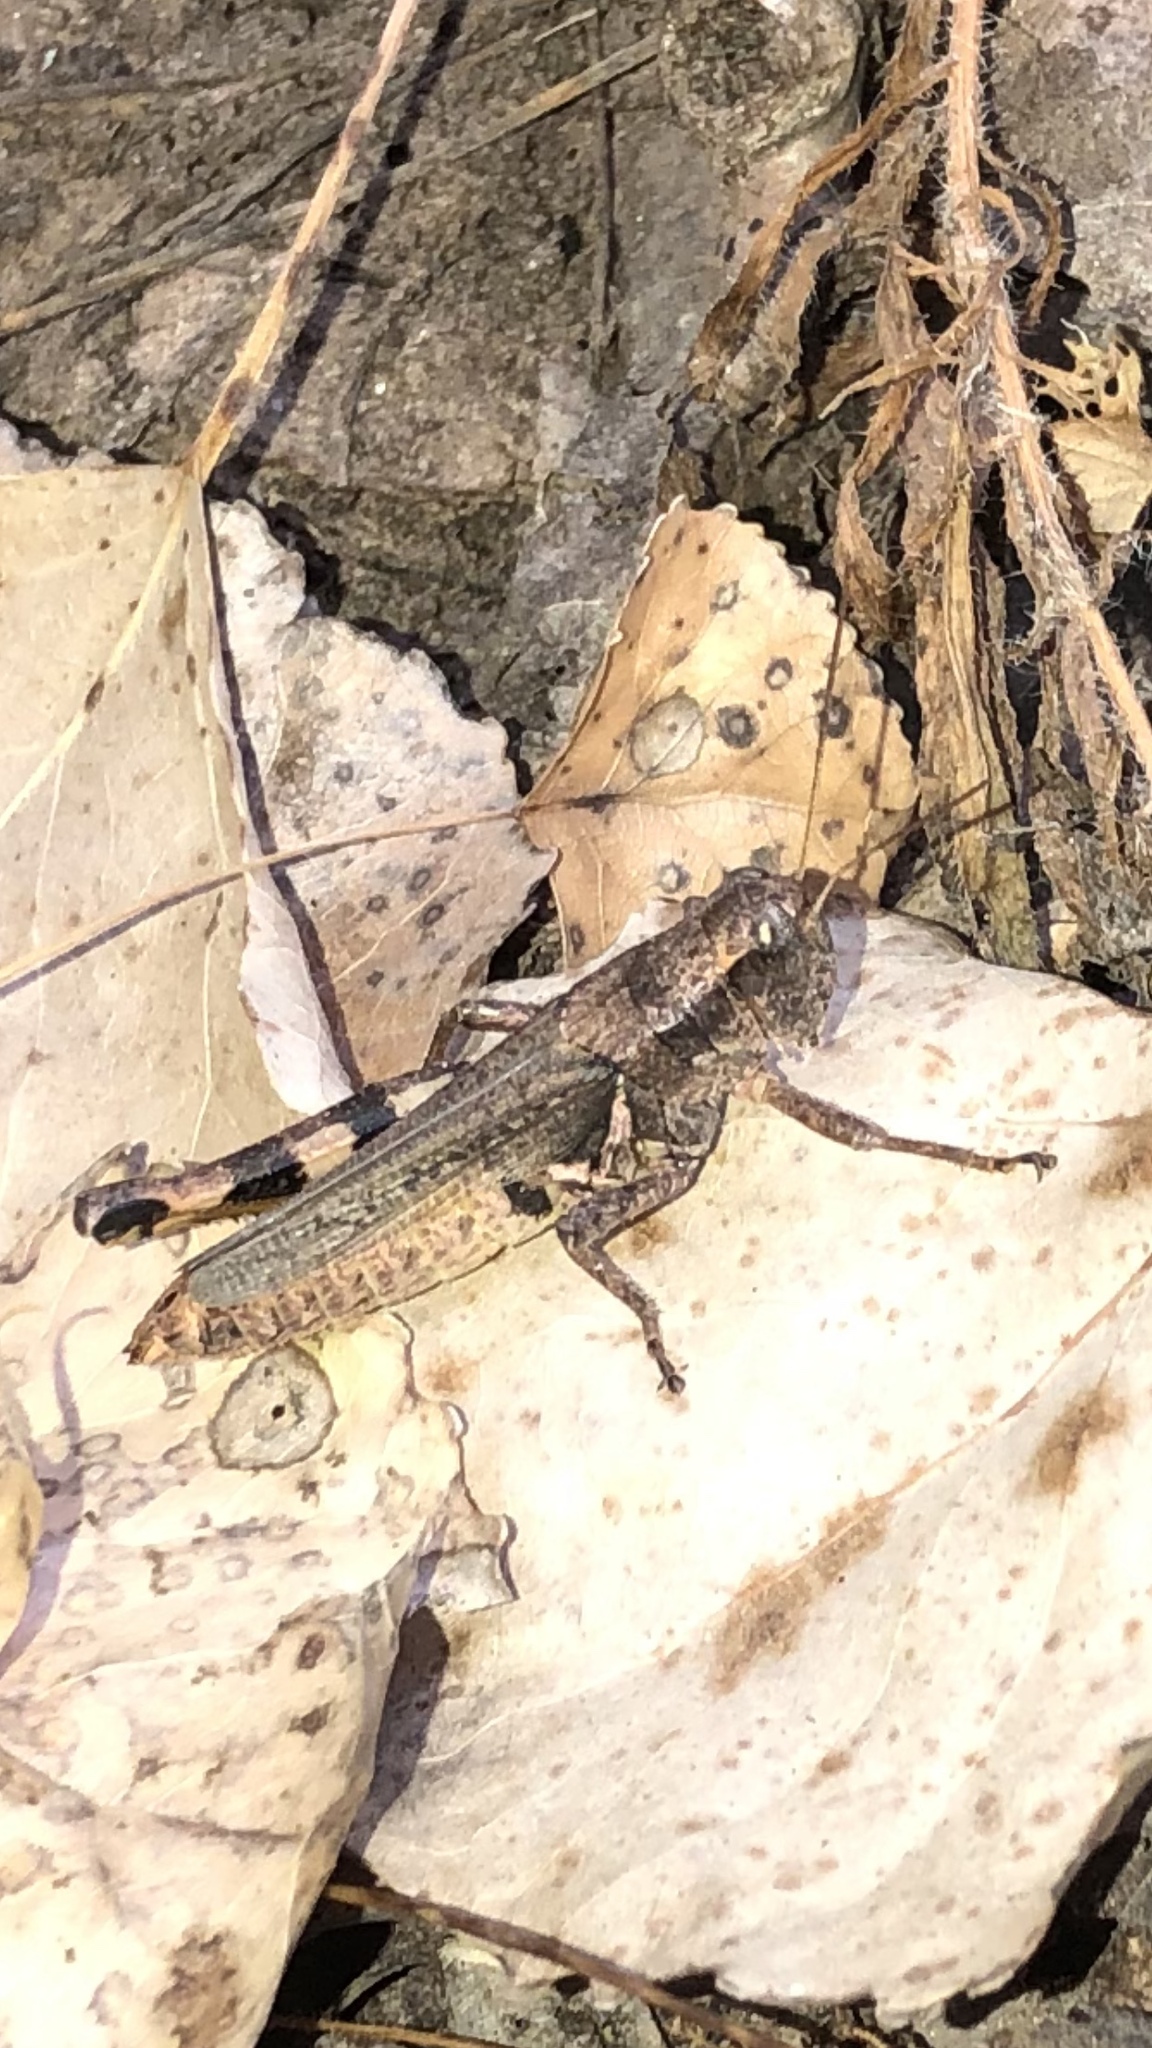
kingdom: Animalia
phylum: Arthropoda
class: Insecta
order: Orthoptera
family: Acrididae
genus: Melanoplus
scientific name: Melanoplus ponderosus
